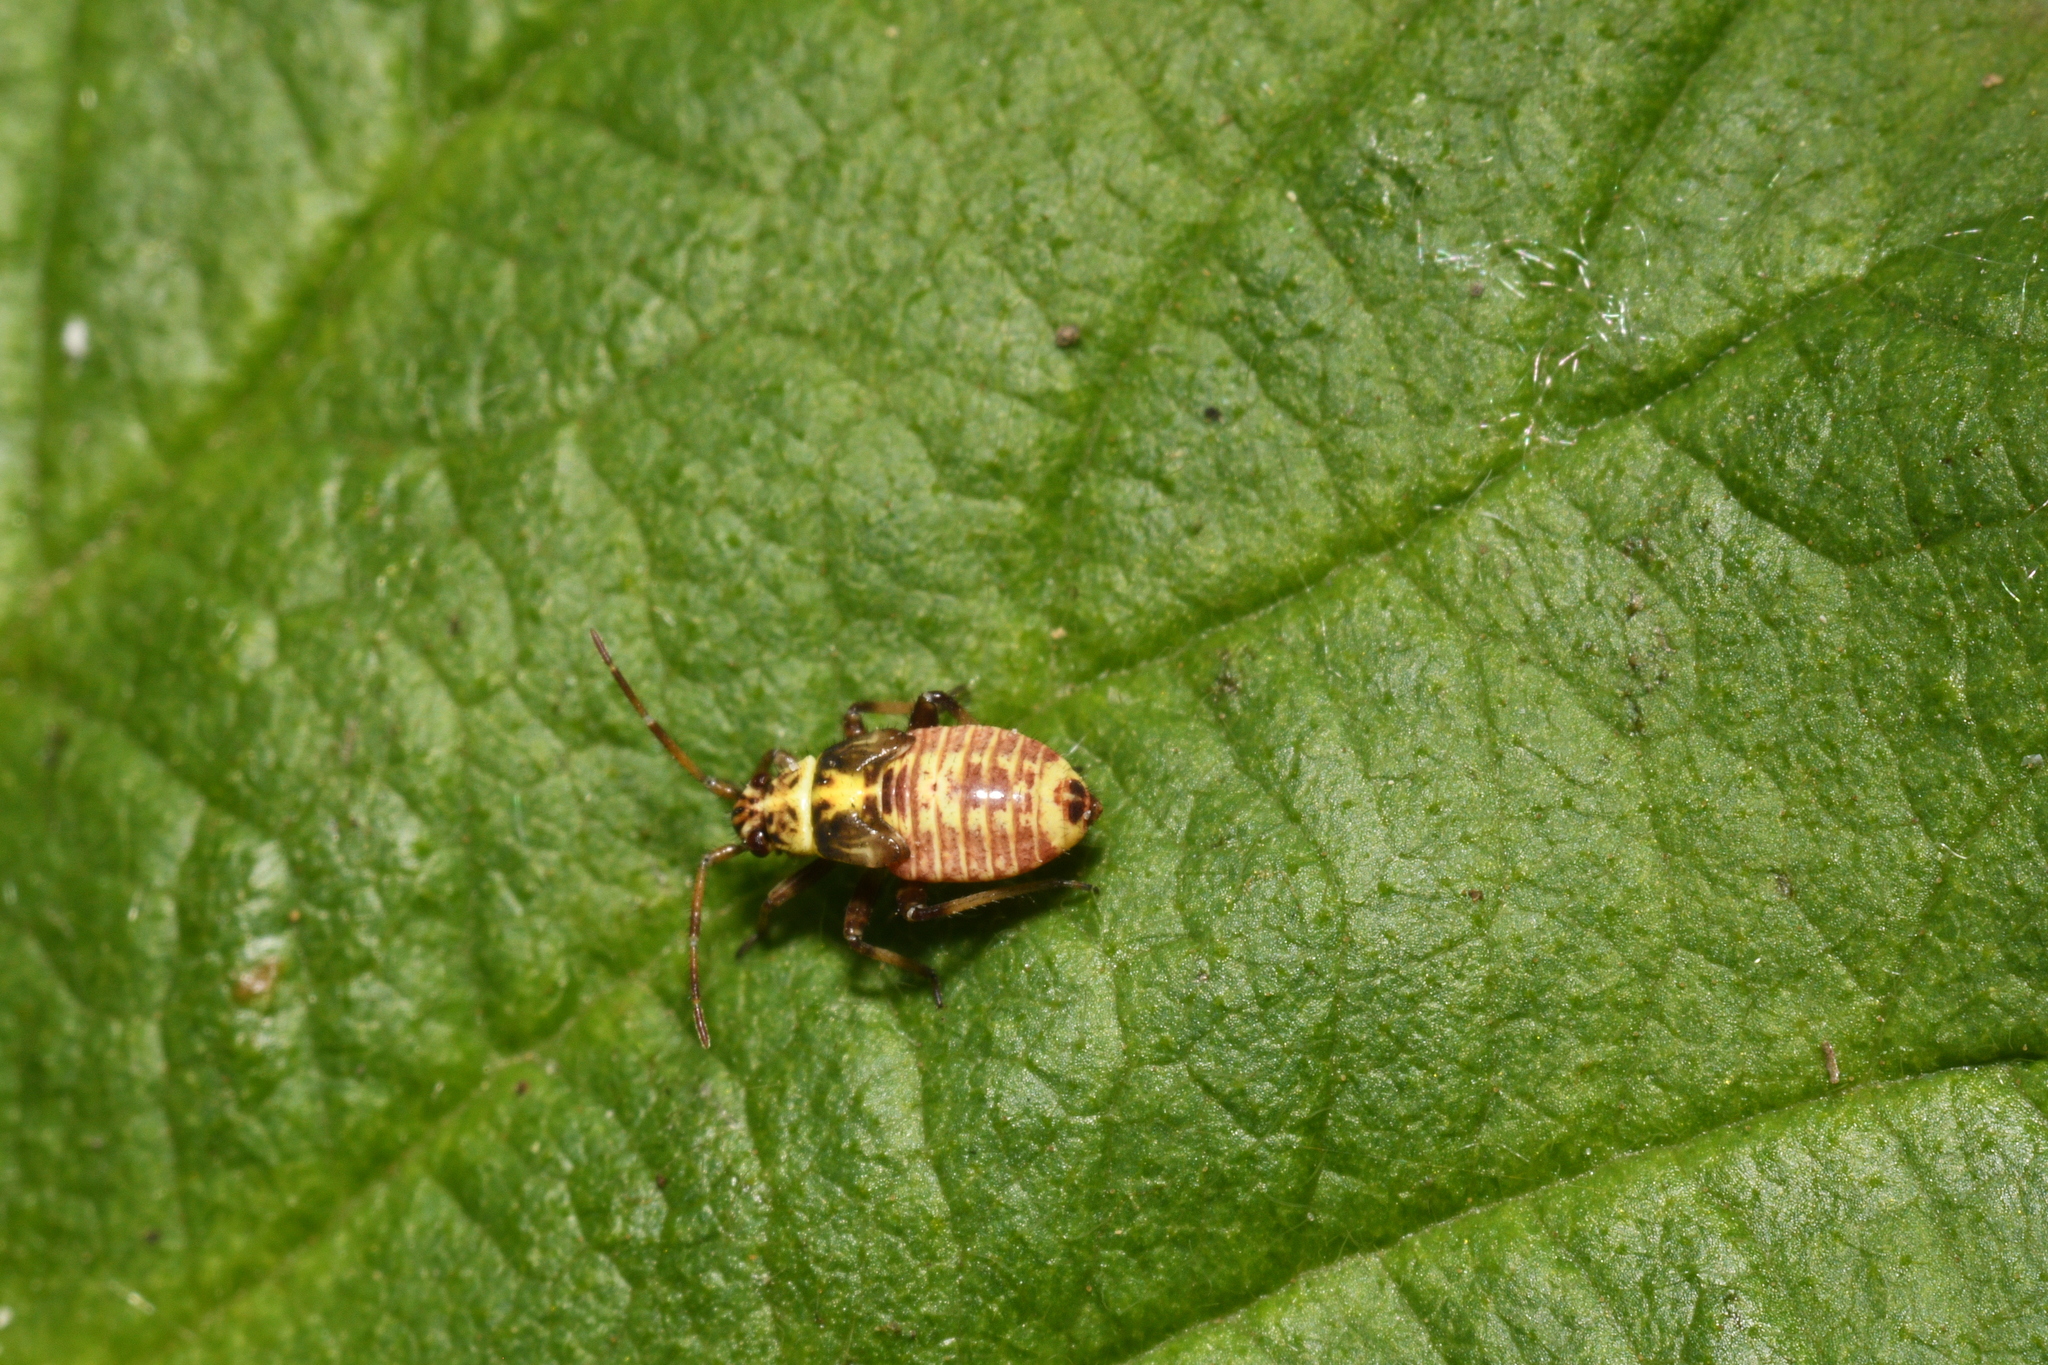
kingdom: Animalia
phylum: Arthropoda
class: Insecta
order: Hemiptera
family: Miridae
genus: Rhabdomiris
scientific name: Rhabdomiris striatellus
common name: Plant bug
